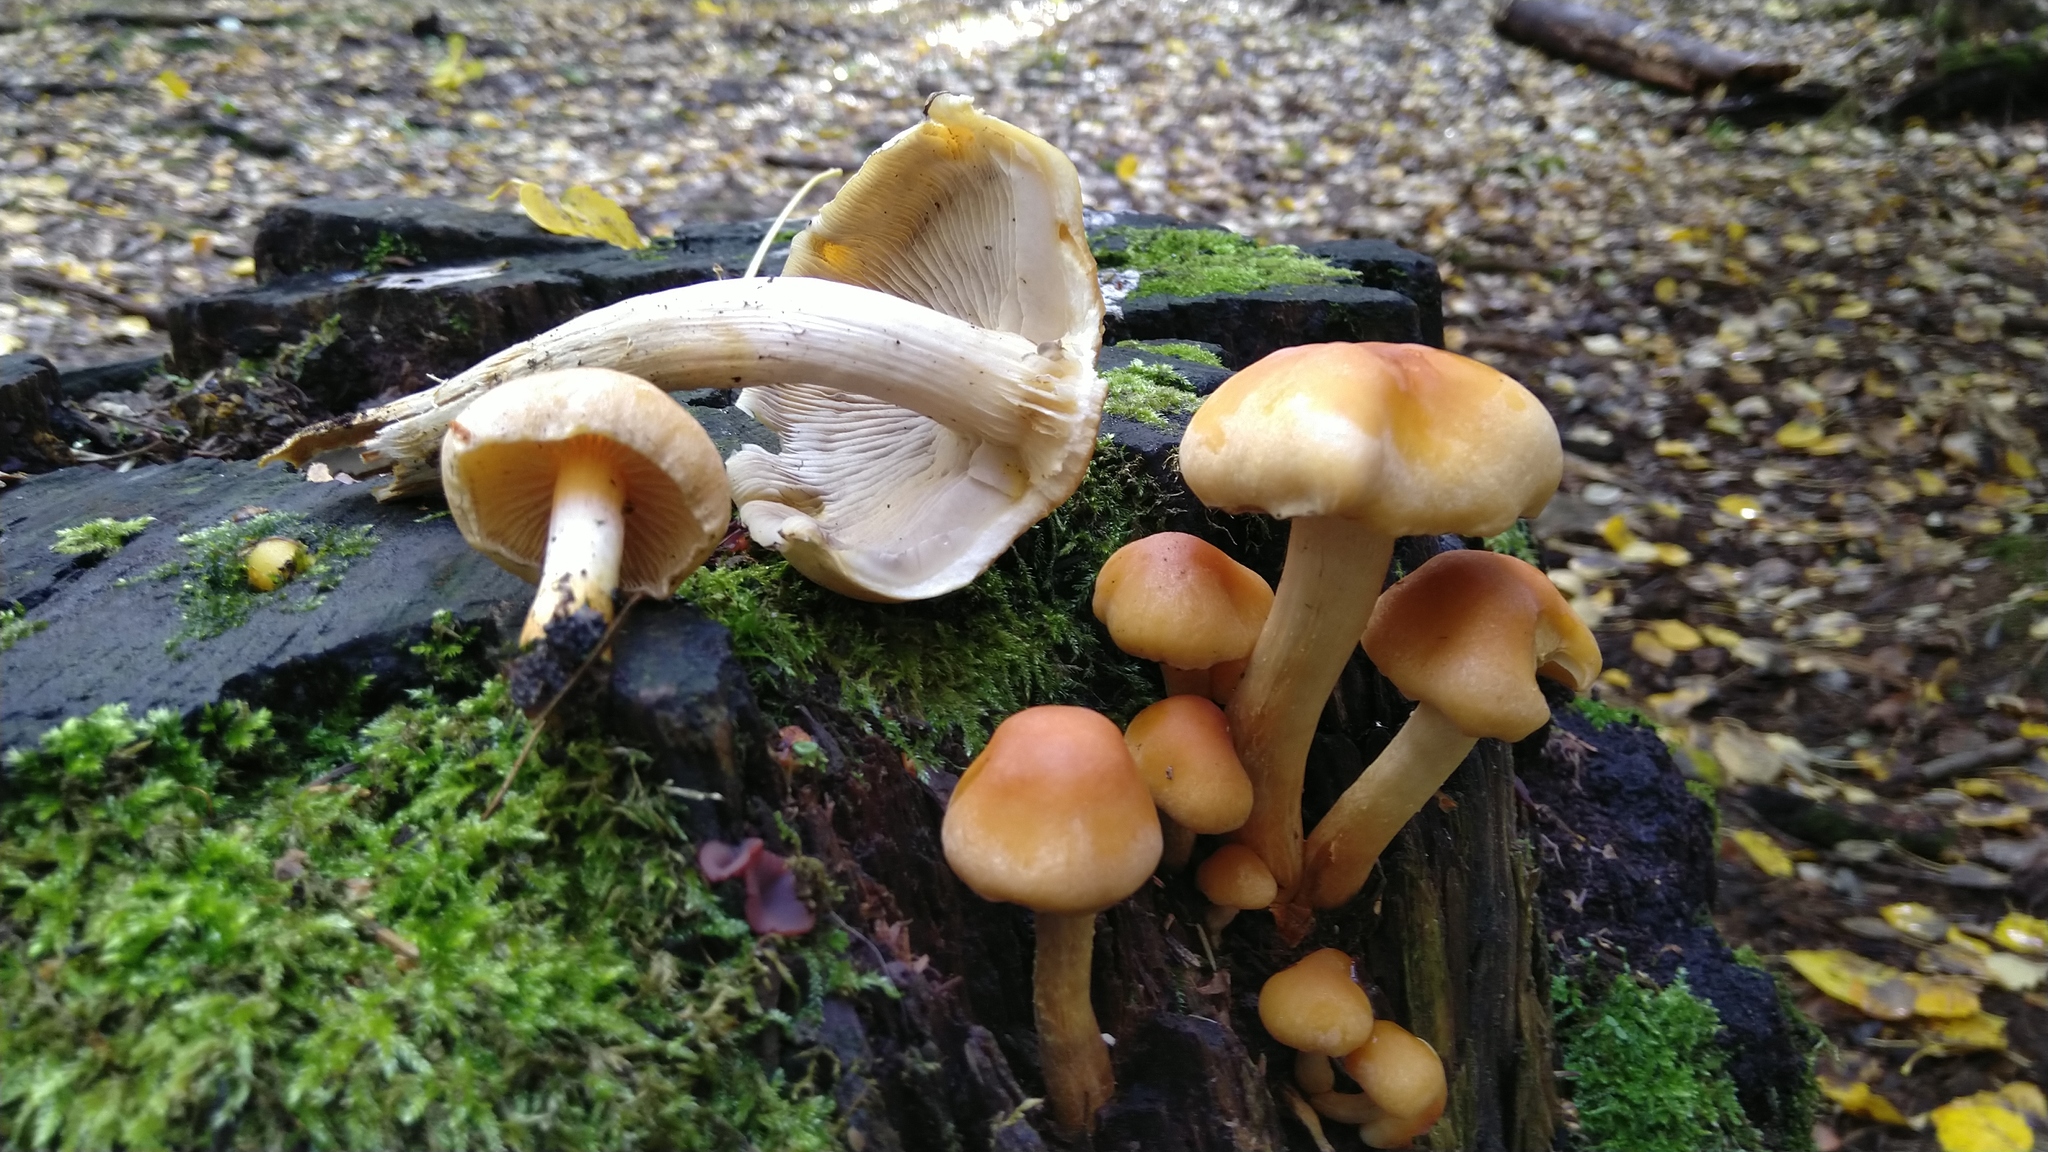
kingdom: Fungi
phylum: Basidiomycota
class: Agaricomycetes
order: Agaricales
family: Strophariaceae
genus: Hypholoma
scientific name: Hypholoma capnoides
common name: Conifer tuft
